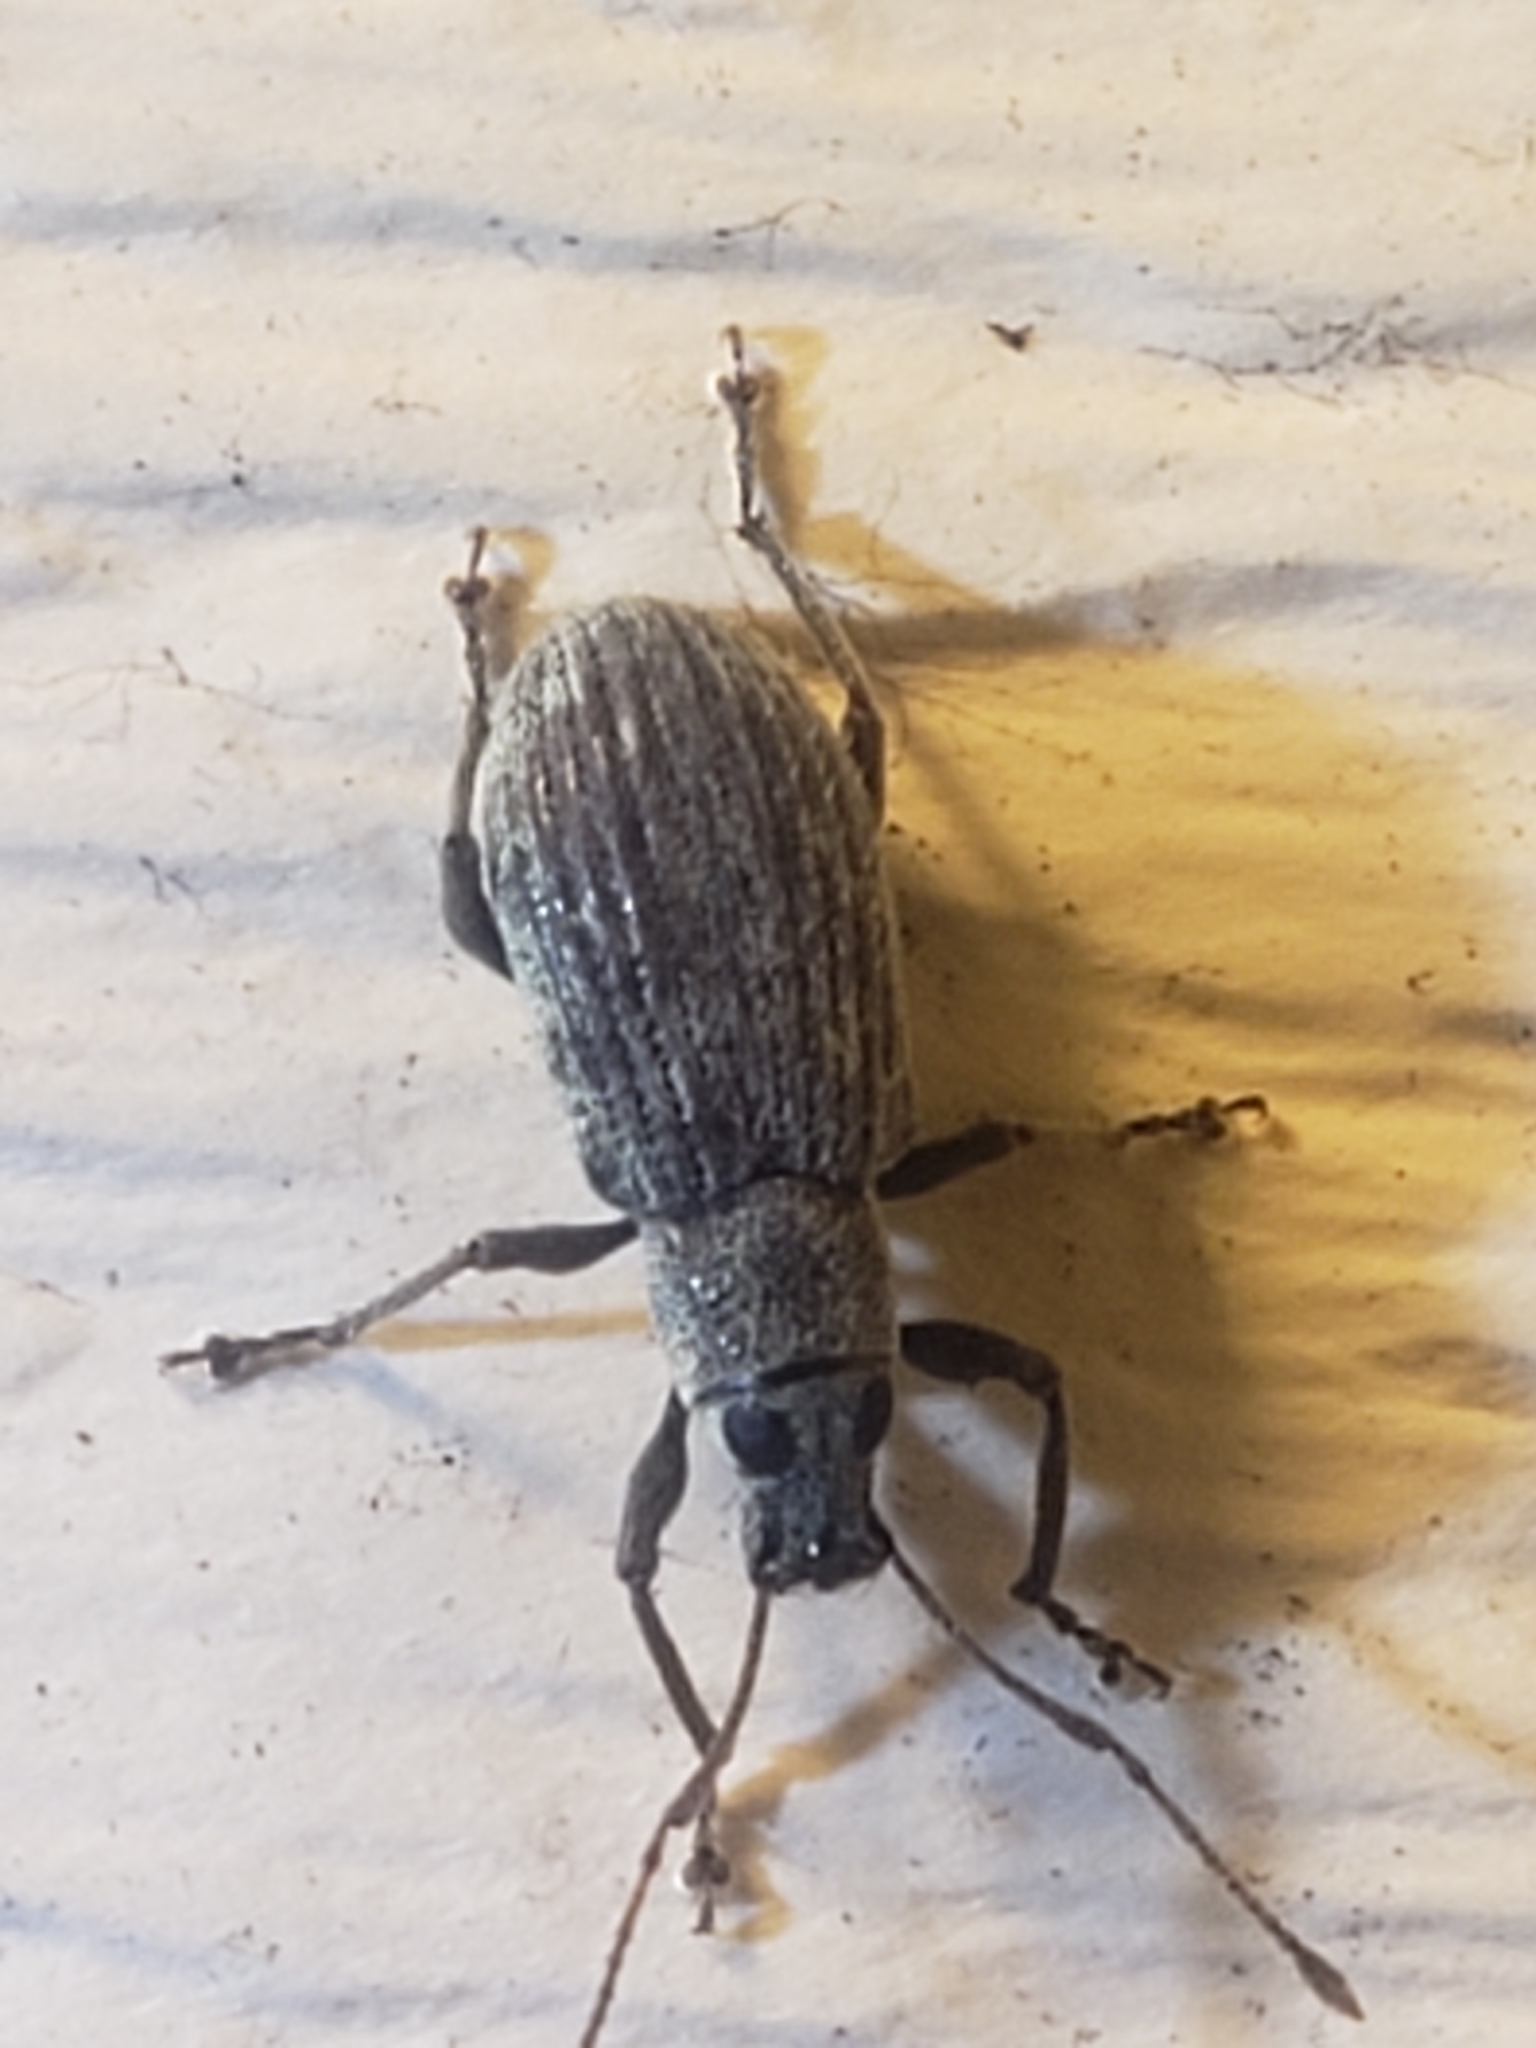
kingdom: Animalia
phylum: Arthropoda
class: Insecta
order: Coleoptera
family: Curculionidae
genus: Cyrtepistomus
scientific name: Cyrtepistomus castaneus
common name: Weevil
